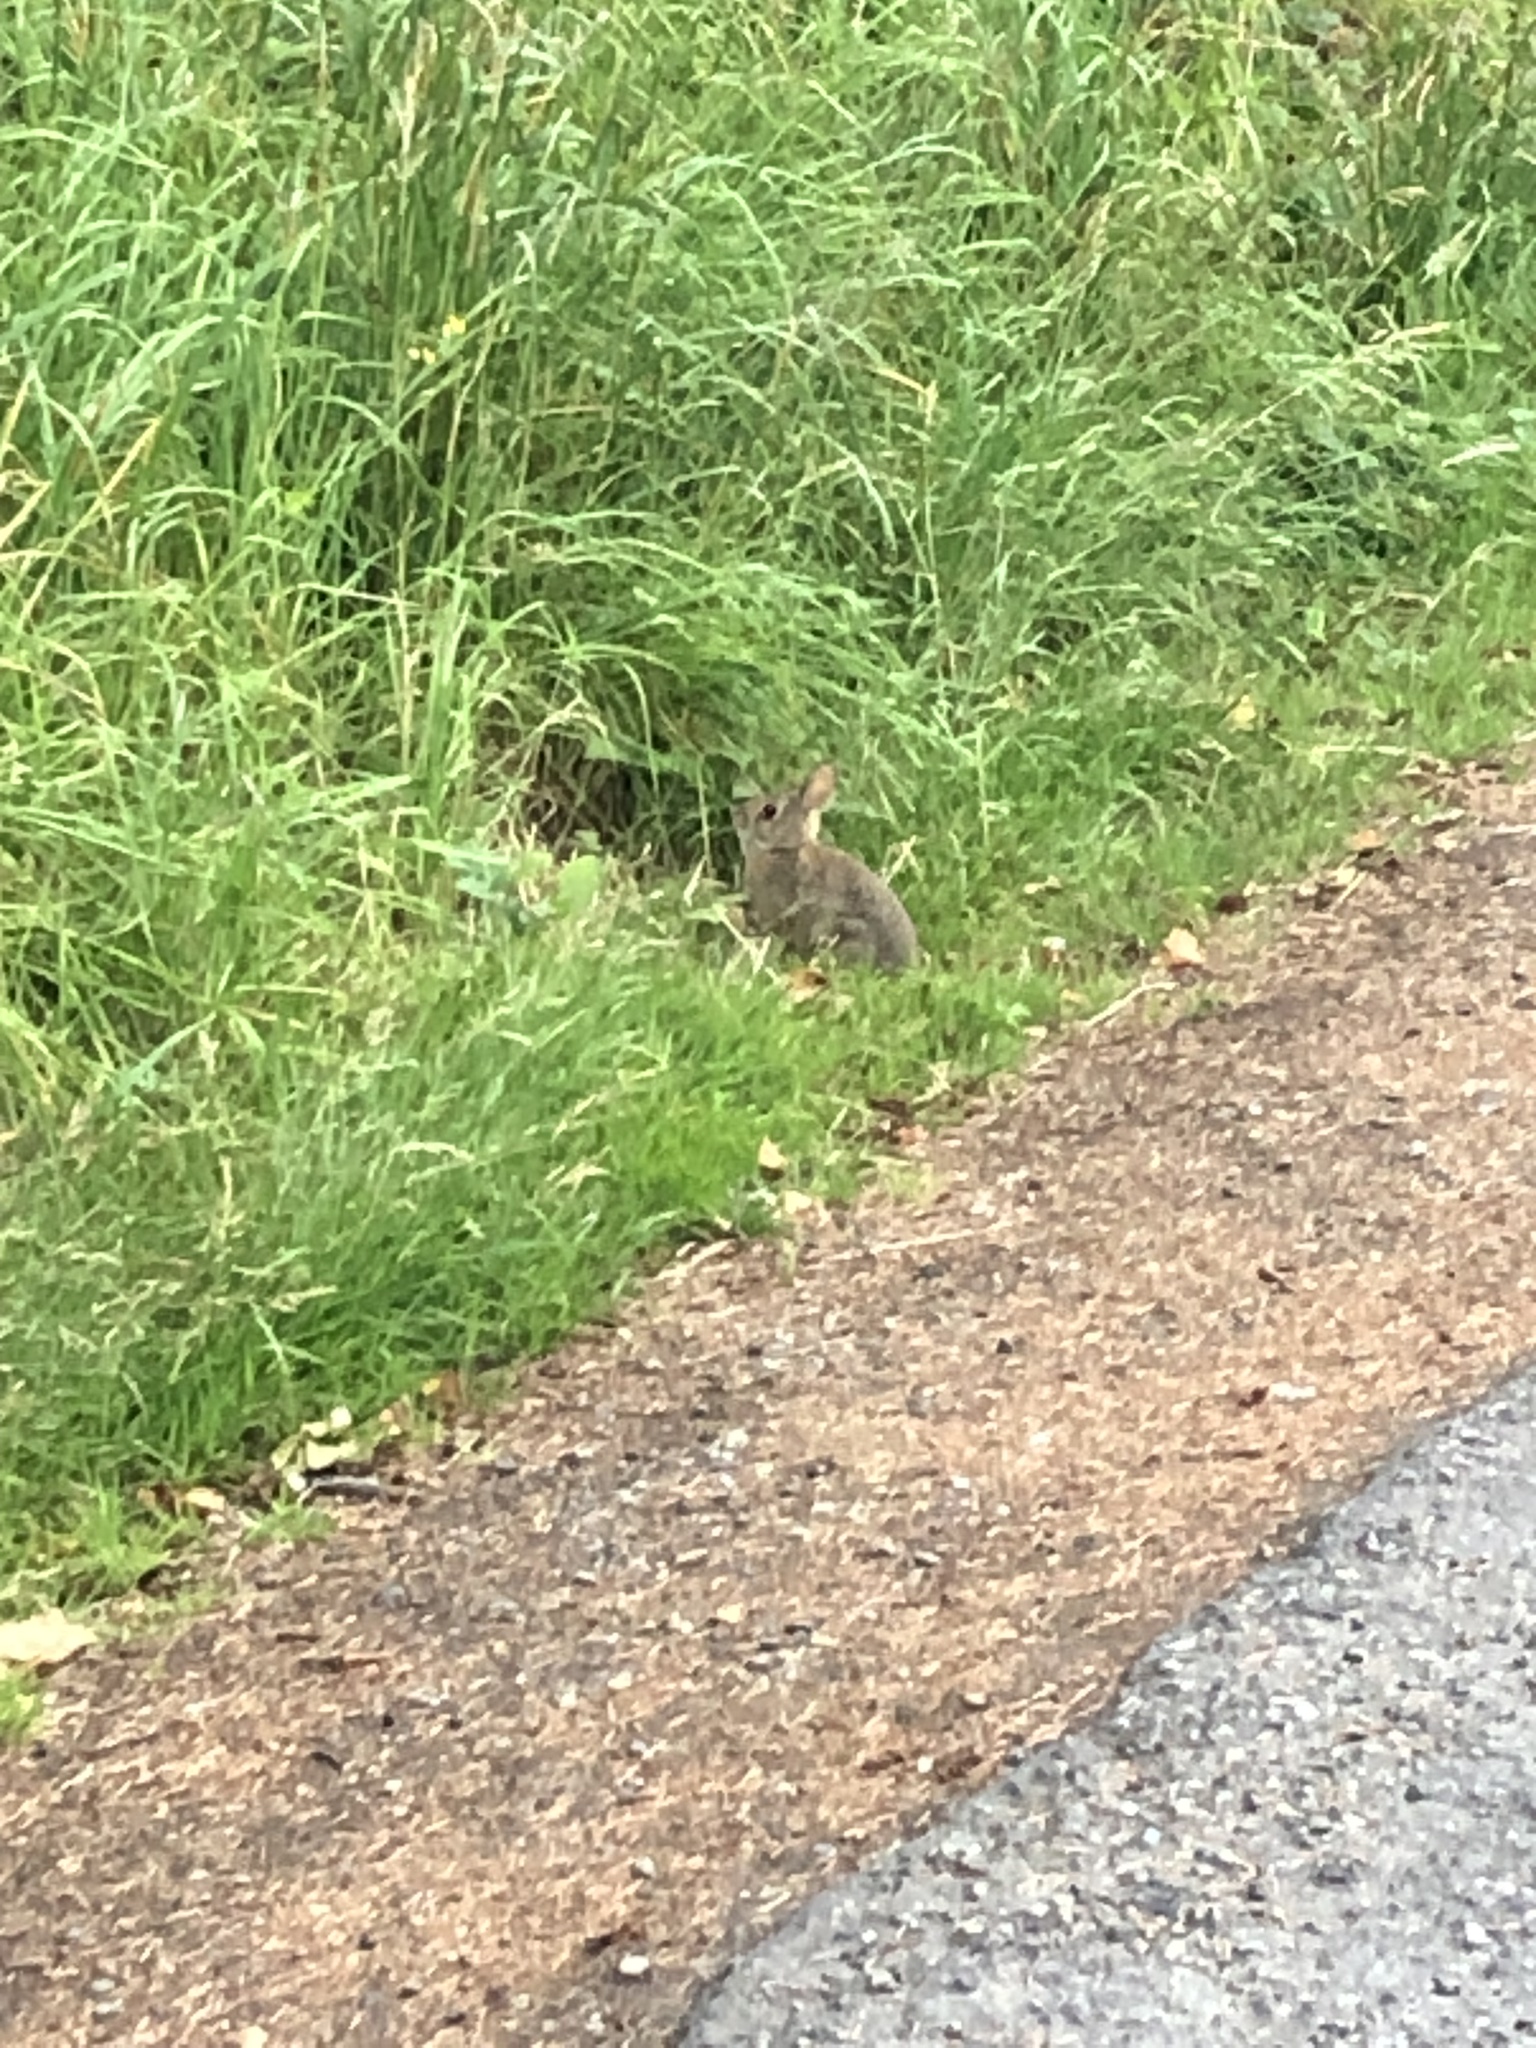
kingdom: Animalia
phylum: Chordata
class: Mammalia
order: Lagomorpha
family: Leporidae
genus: Sylvilagus
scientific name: Sylvilagus floridanus
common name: Eastern cottontail
